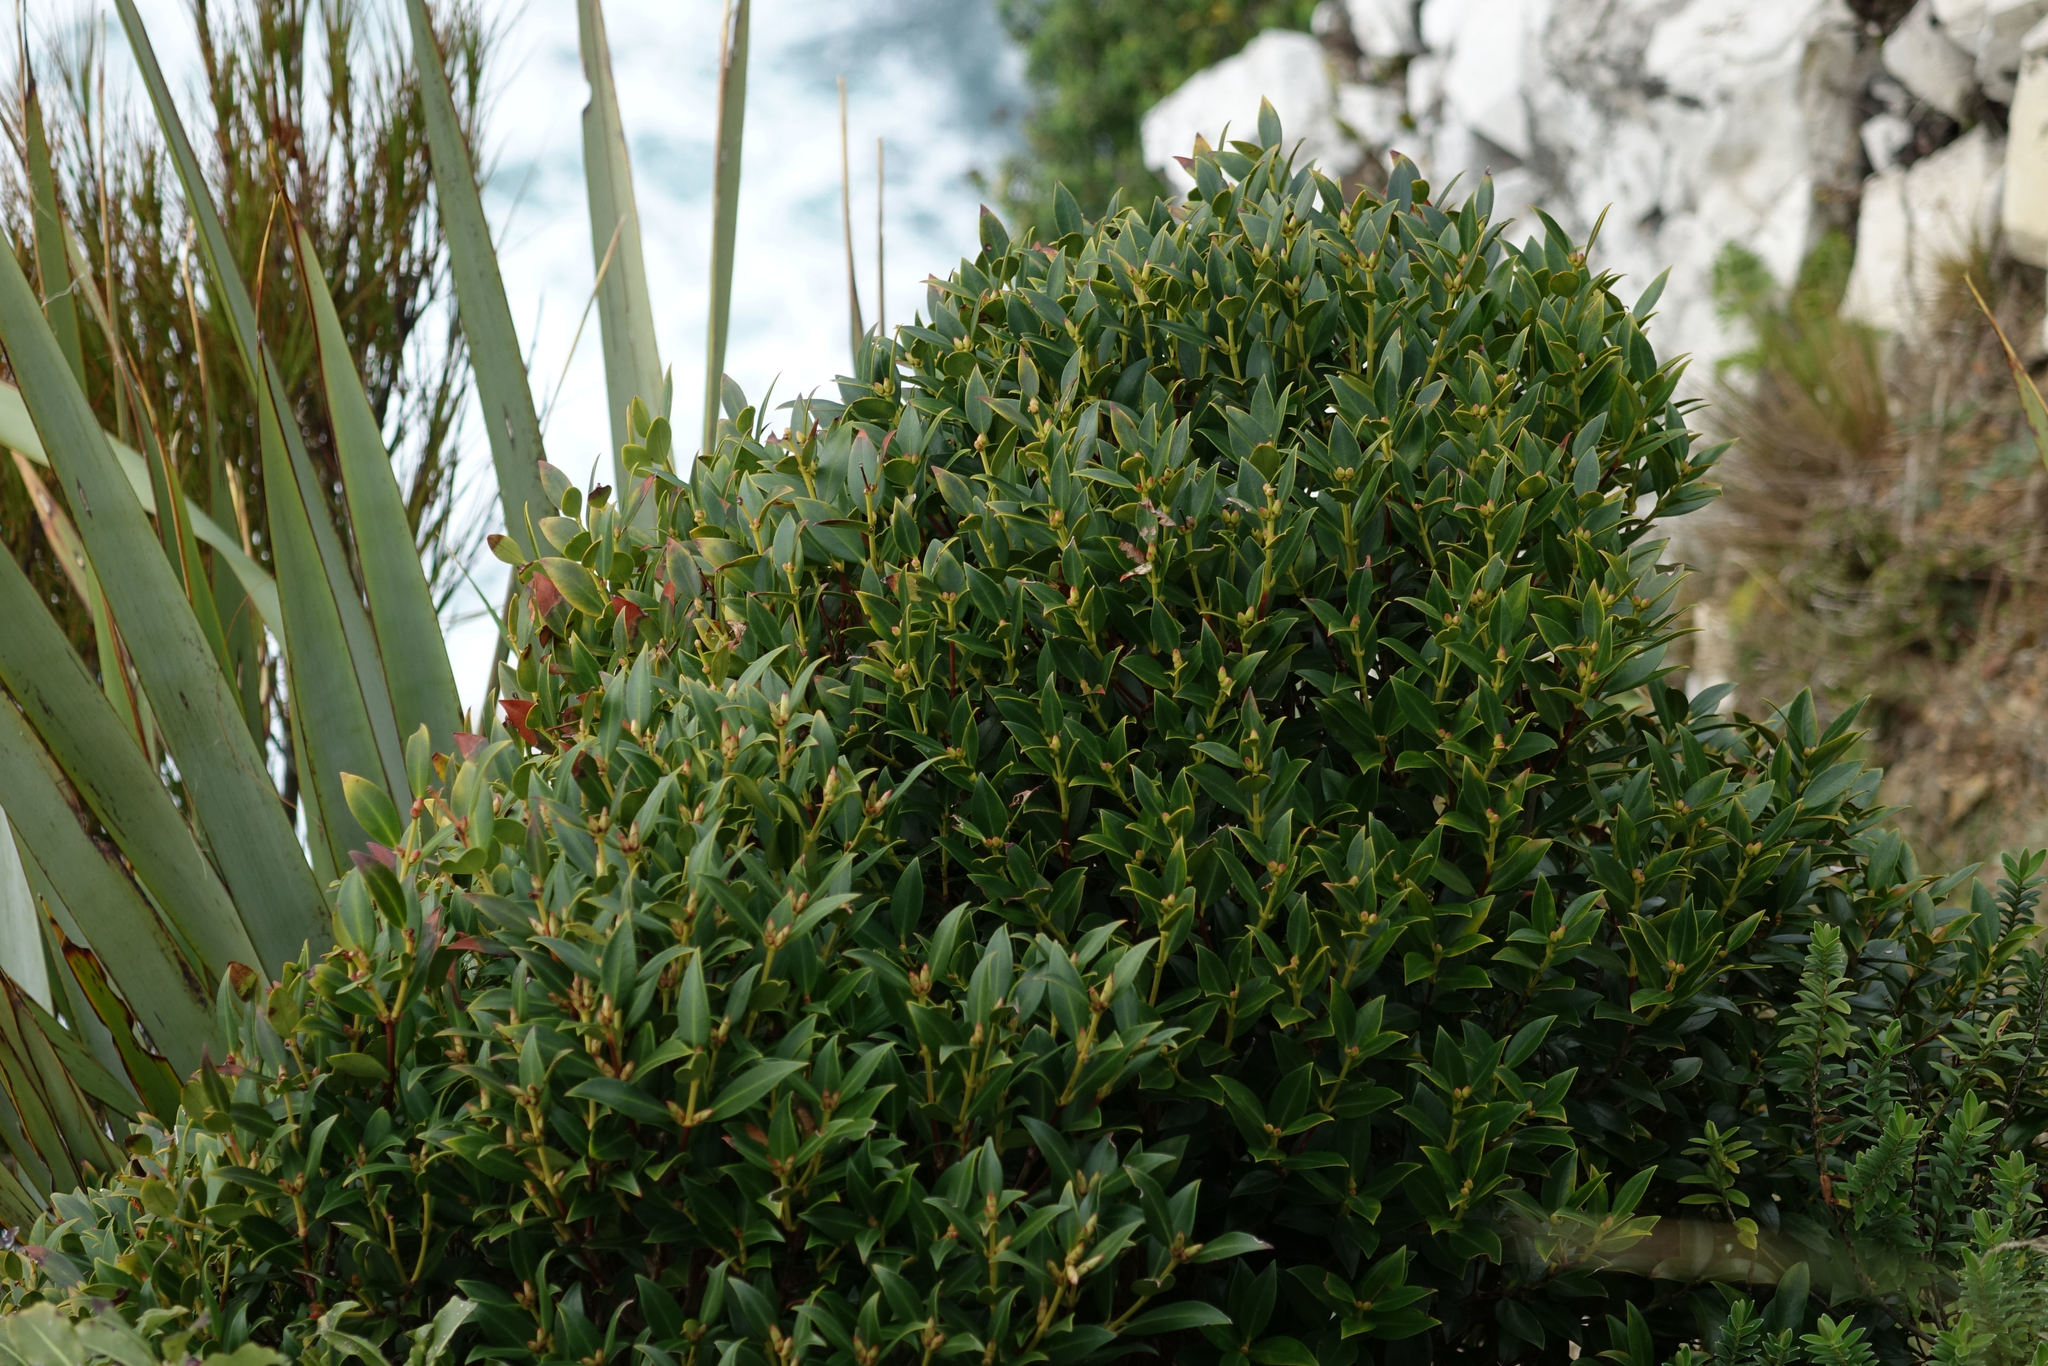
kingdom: Plantae
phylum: Tracheophyta
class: Magnoliopsida
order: Myrtales
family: Myrtaceae
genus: Metrosideros
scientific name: Metrosideros umbellata
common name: Southern rata
